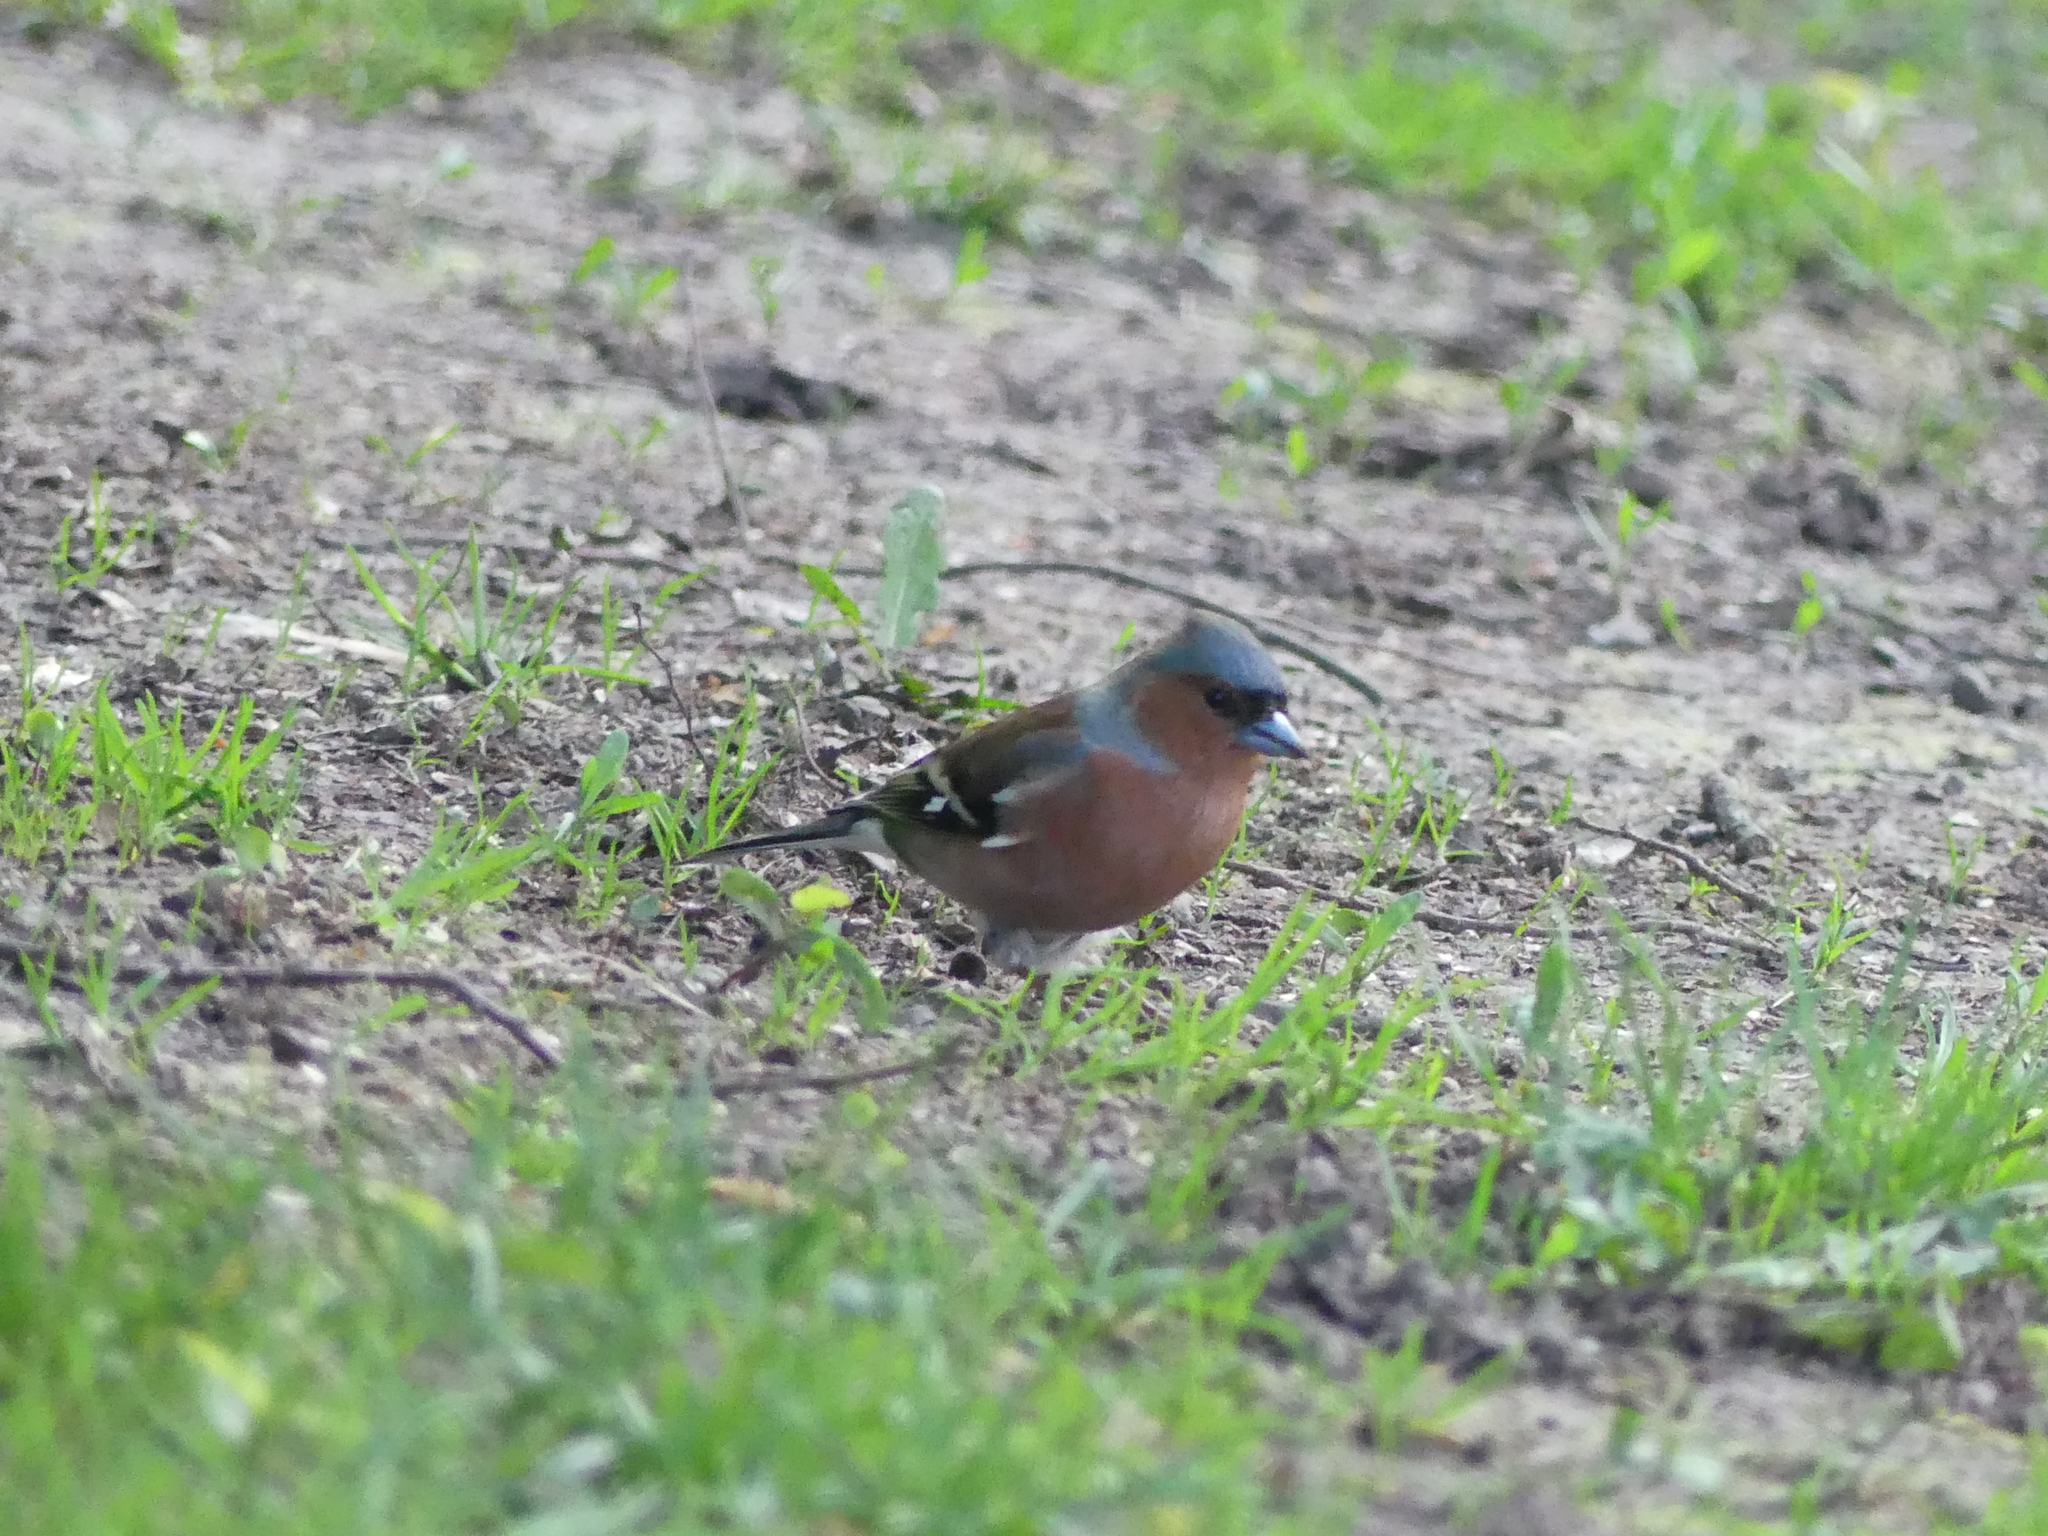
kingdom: Animalia
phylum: Chordata
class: Aves
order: Passeriformes
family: Fringillidae
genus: Fringilla
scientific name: Fringilla coelebs
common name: Common chaffinch
